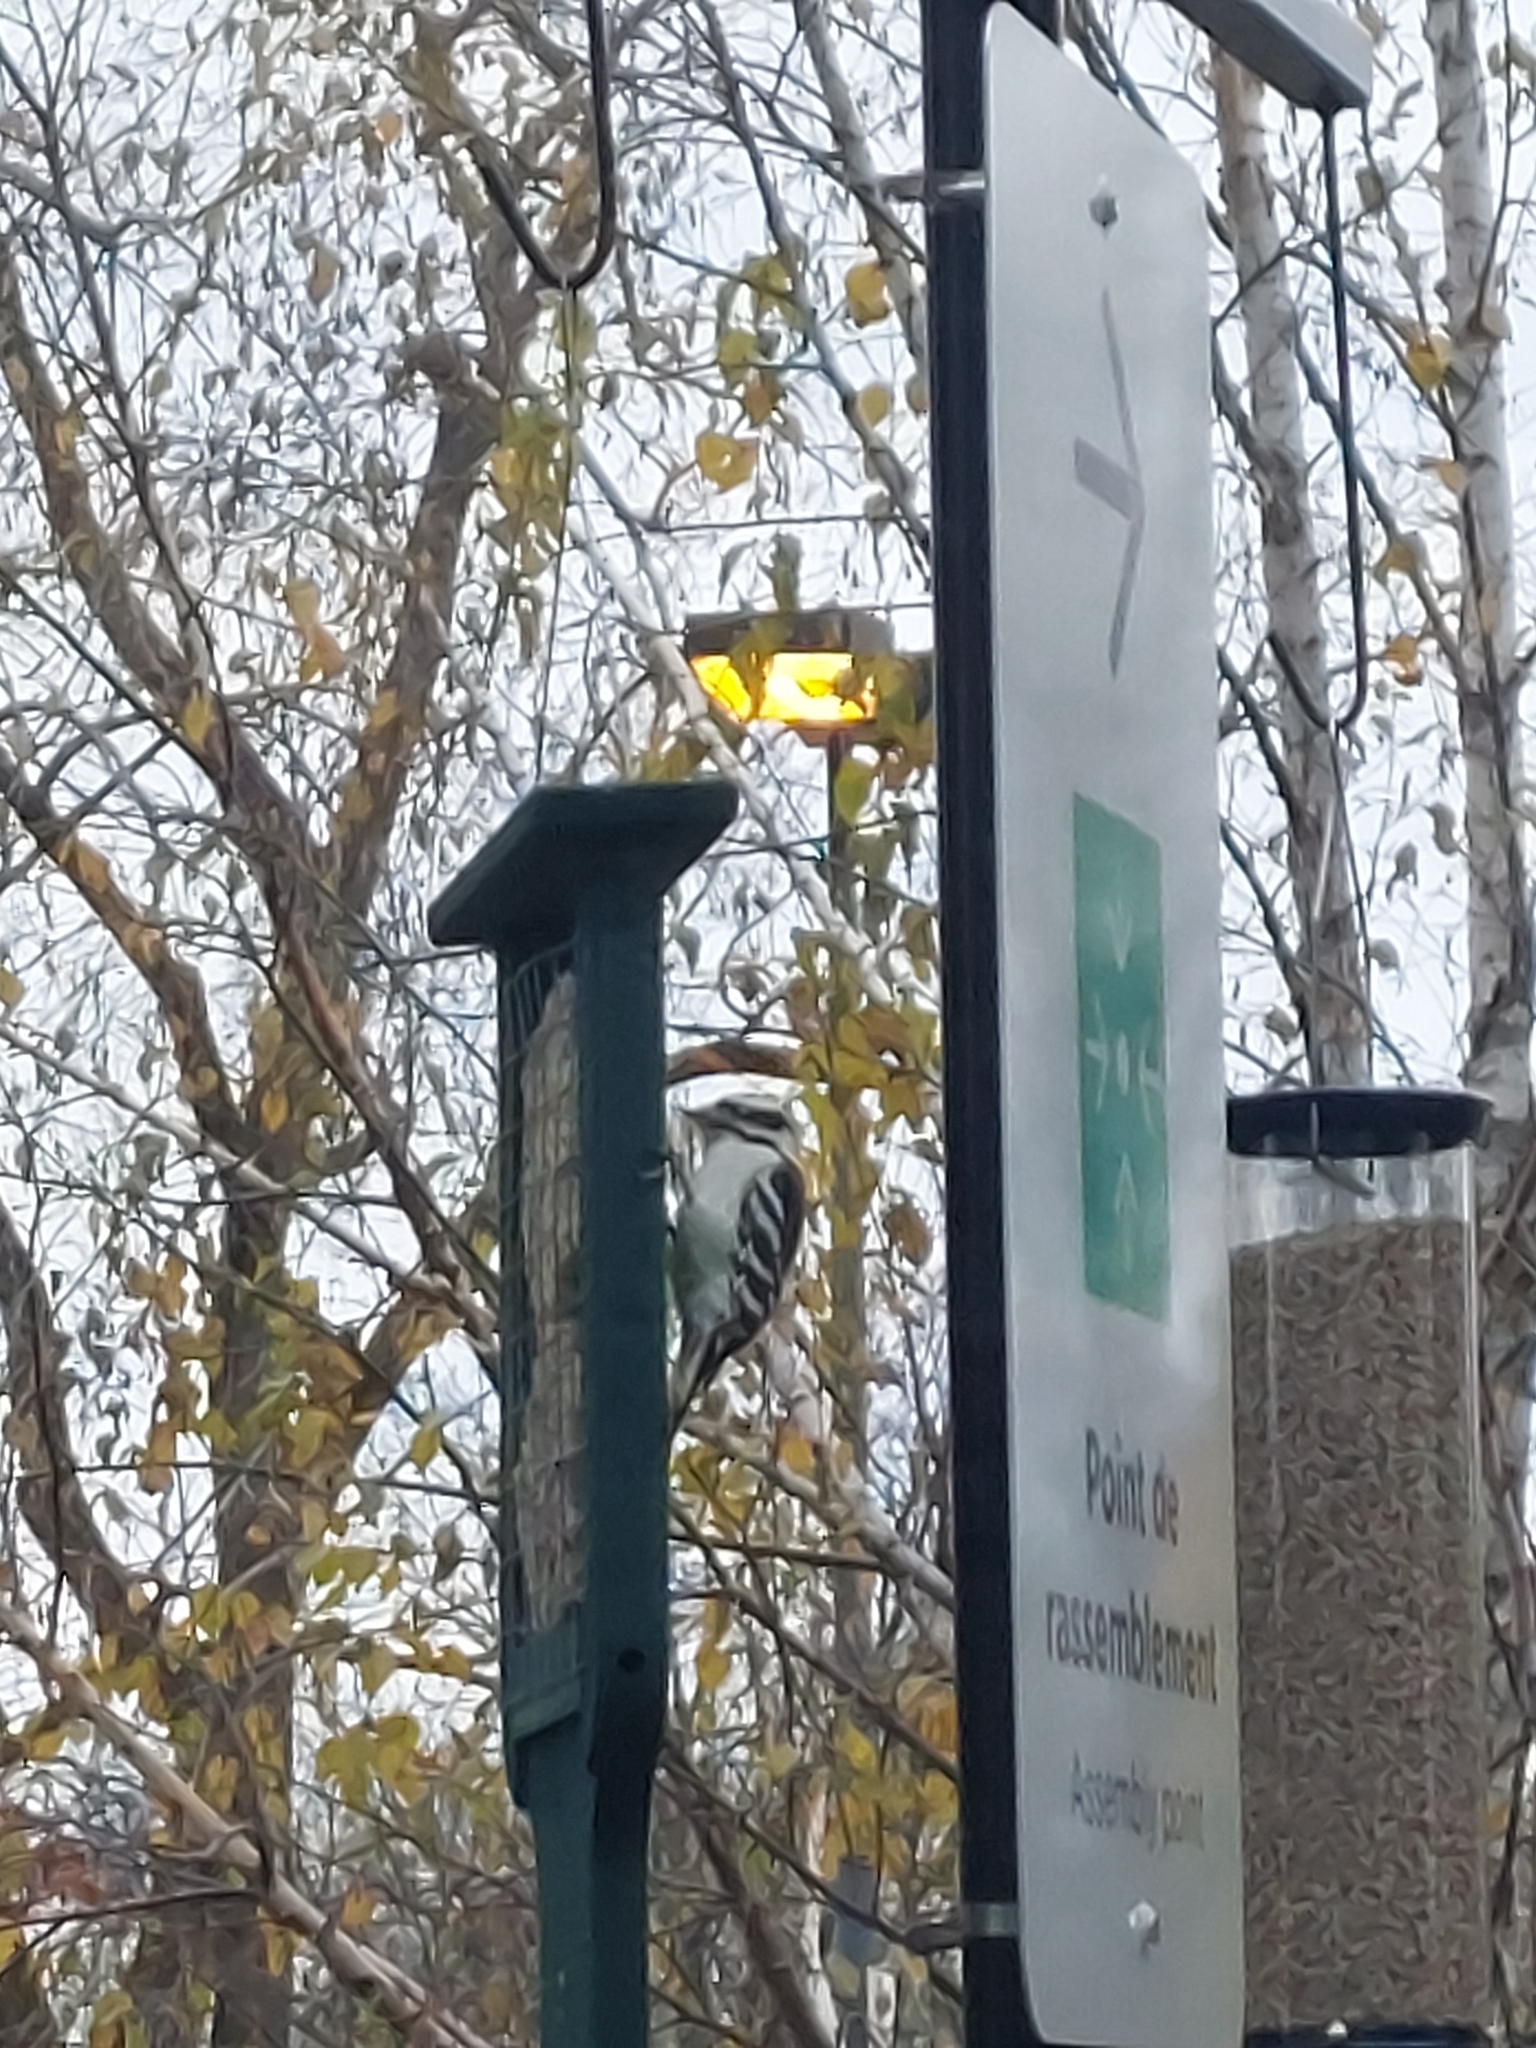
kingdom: Animalia
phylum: Chordata
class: Aves
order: Piciformes
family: Picidae
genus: Dryobates
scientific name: Dryobates pubescens
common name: Downy woodpecker
